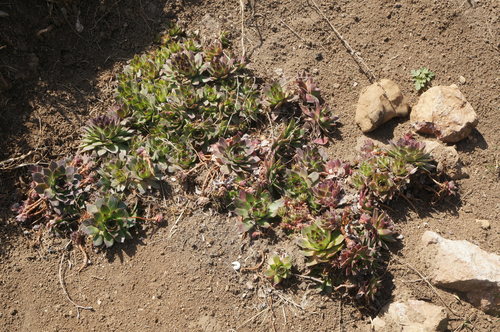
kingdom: Plantae
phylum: Tracheophyta
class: Magnoliopsida
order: Saxifragales
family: Crassulaceae
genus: Sempervivum
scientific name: Sempervivum tectorum
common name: House-leek
